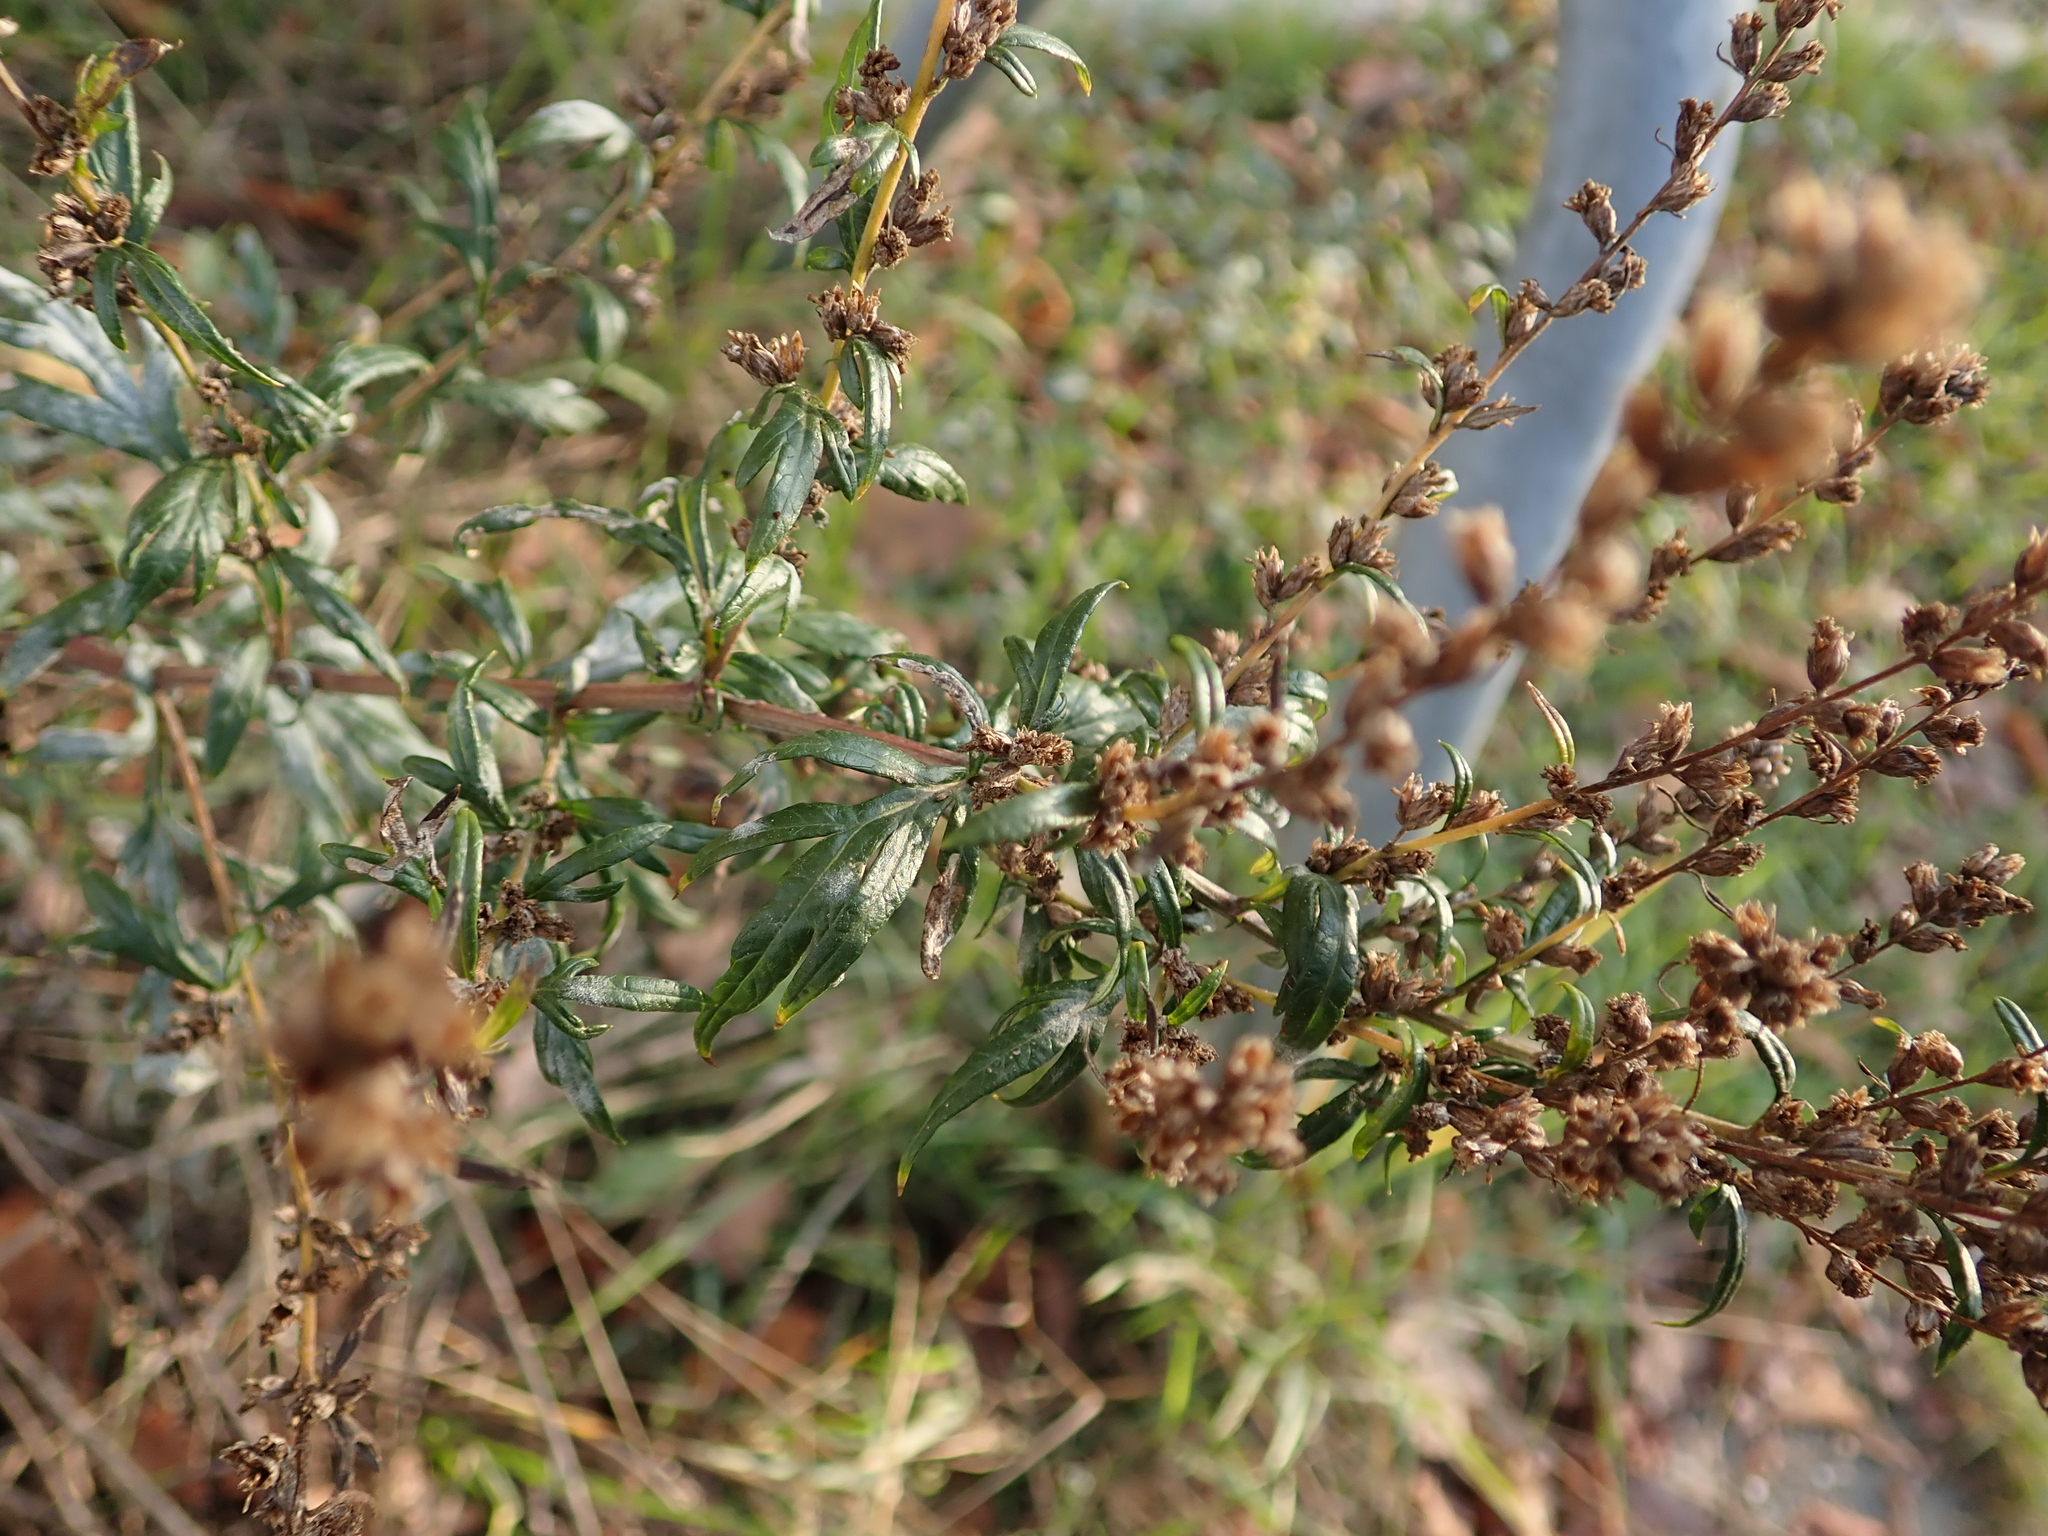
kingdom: Plantae
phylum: Tracheophyta
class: Magnoliopsida
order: Asterales
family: Asteraceae
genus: Artemisia
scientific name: Artemisia vulgaris
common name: Mugwort
